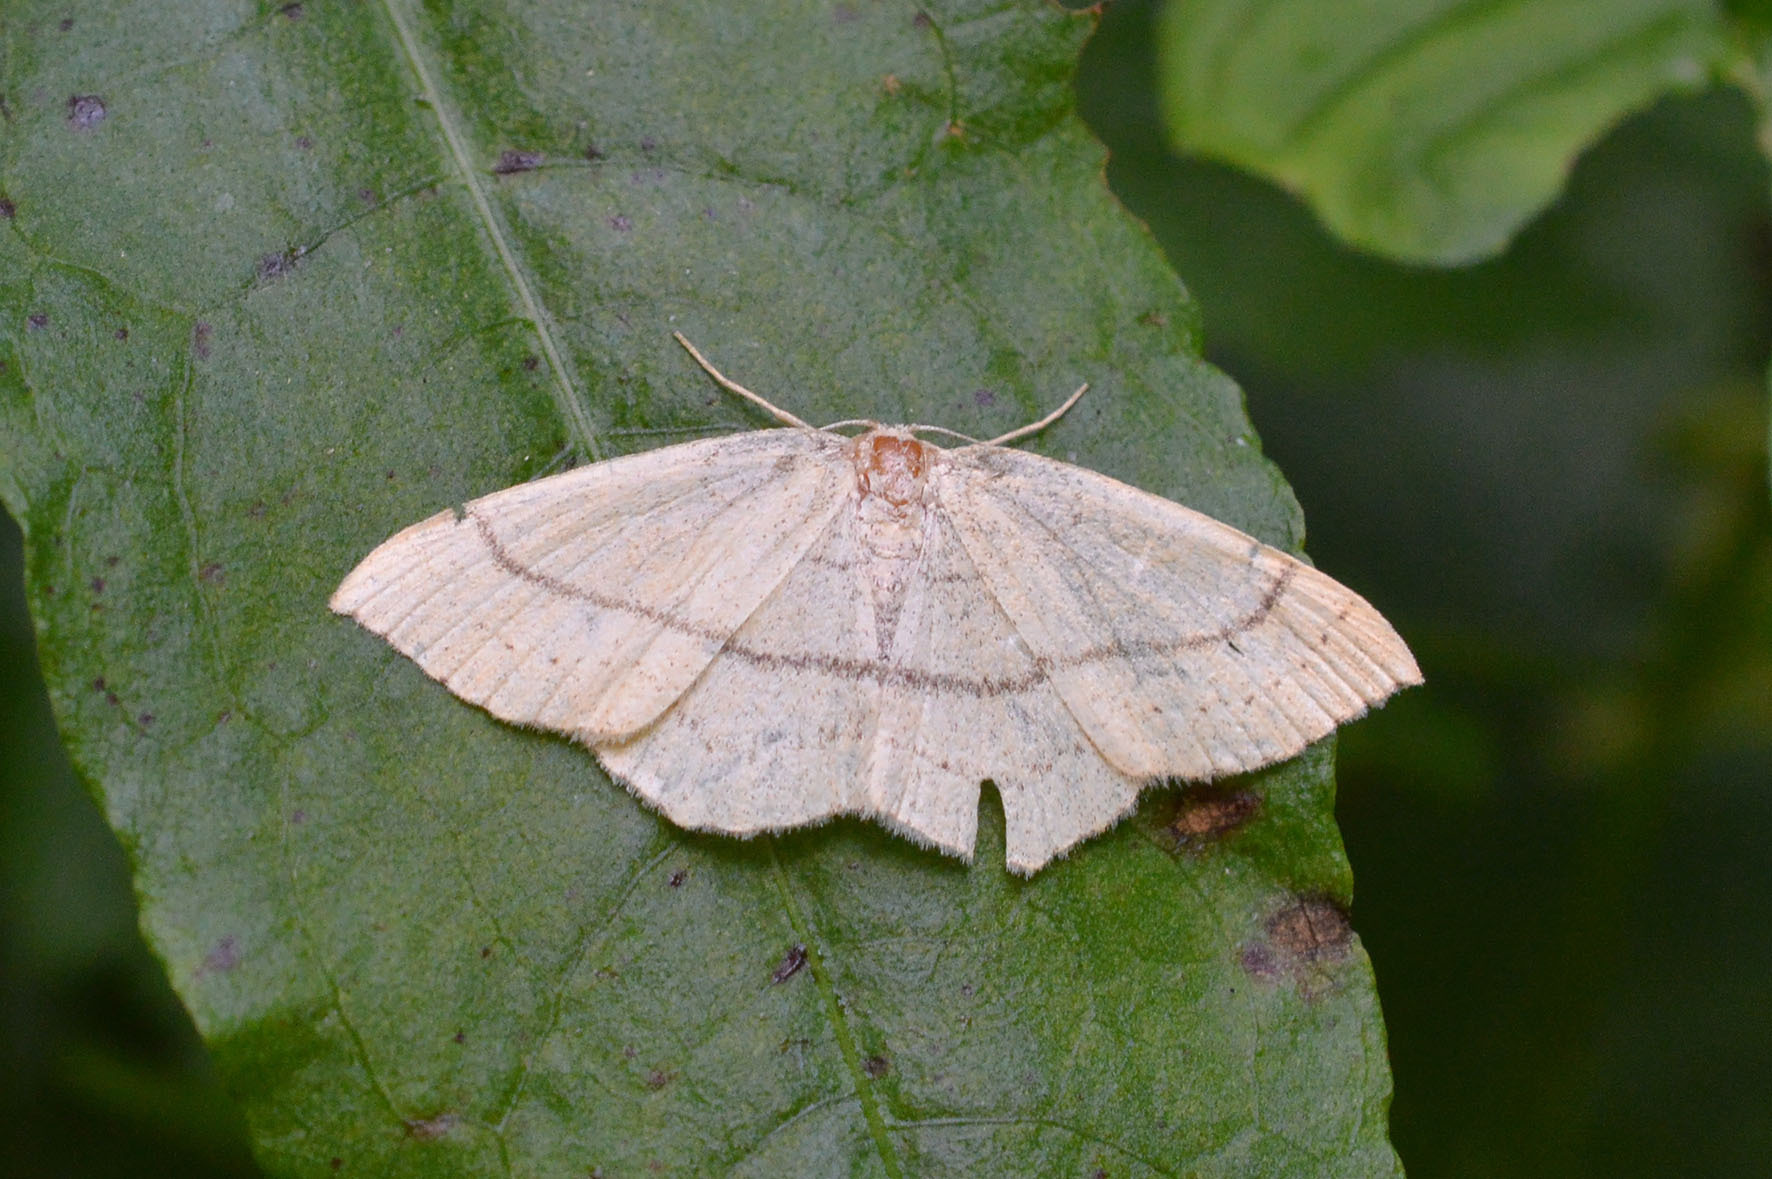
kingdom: Animalia
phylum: Arthropoda
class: Insecta
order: Lepidoptera
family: Geometridae
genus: Cyclophora
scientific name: Cyclophora linearia
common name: Clay triple-lines
